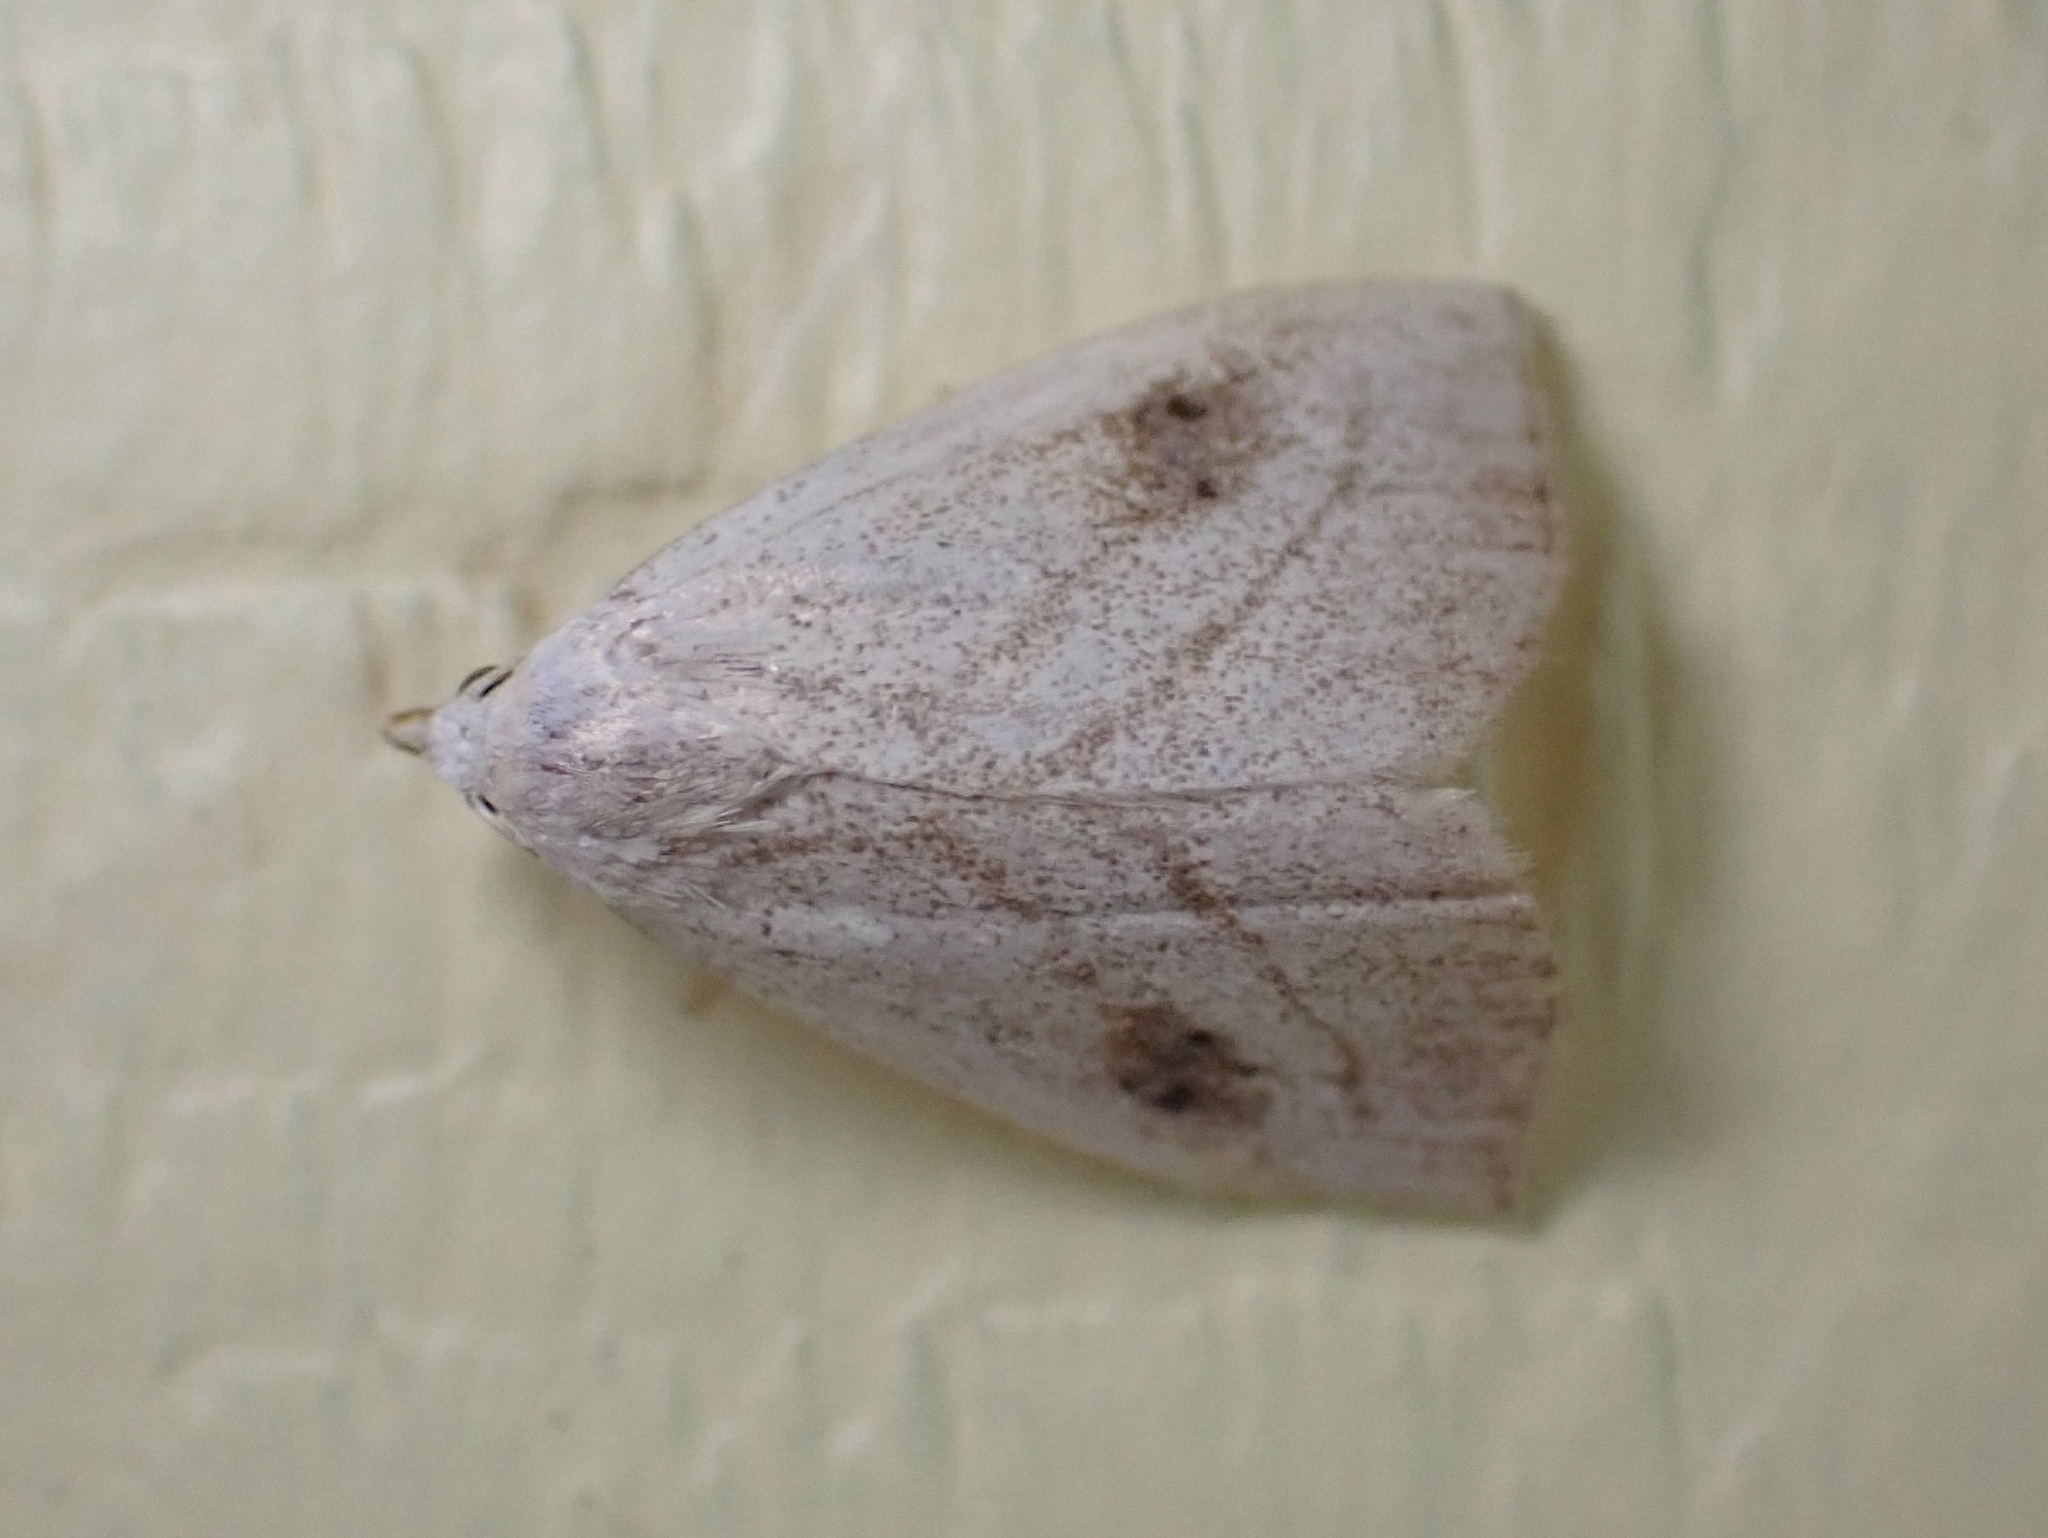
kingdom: Animalia
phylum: Arthropoda
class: Insecta
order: Lepidoptera
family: Erebidae
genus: Rivula
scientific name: Rivula propinqualis
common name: Spotted grass moth
